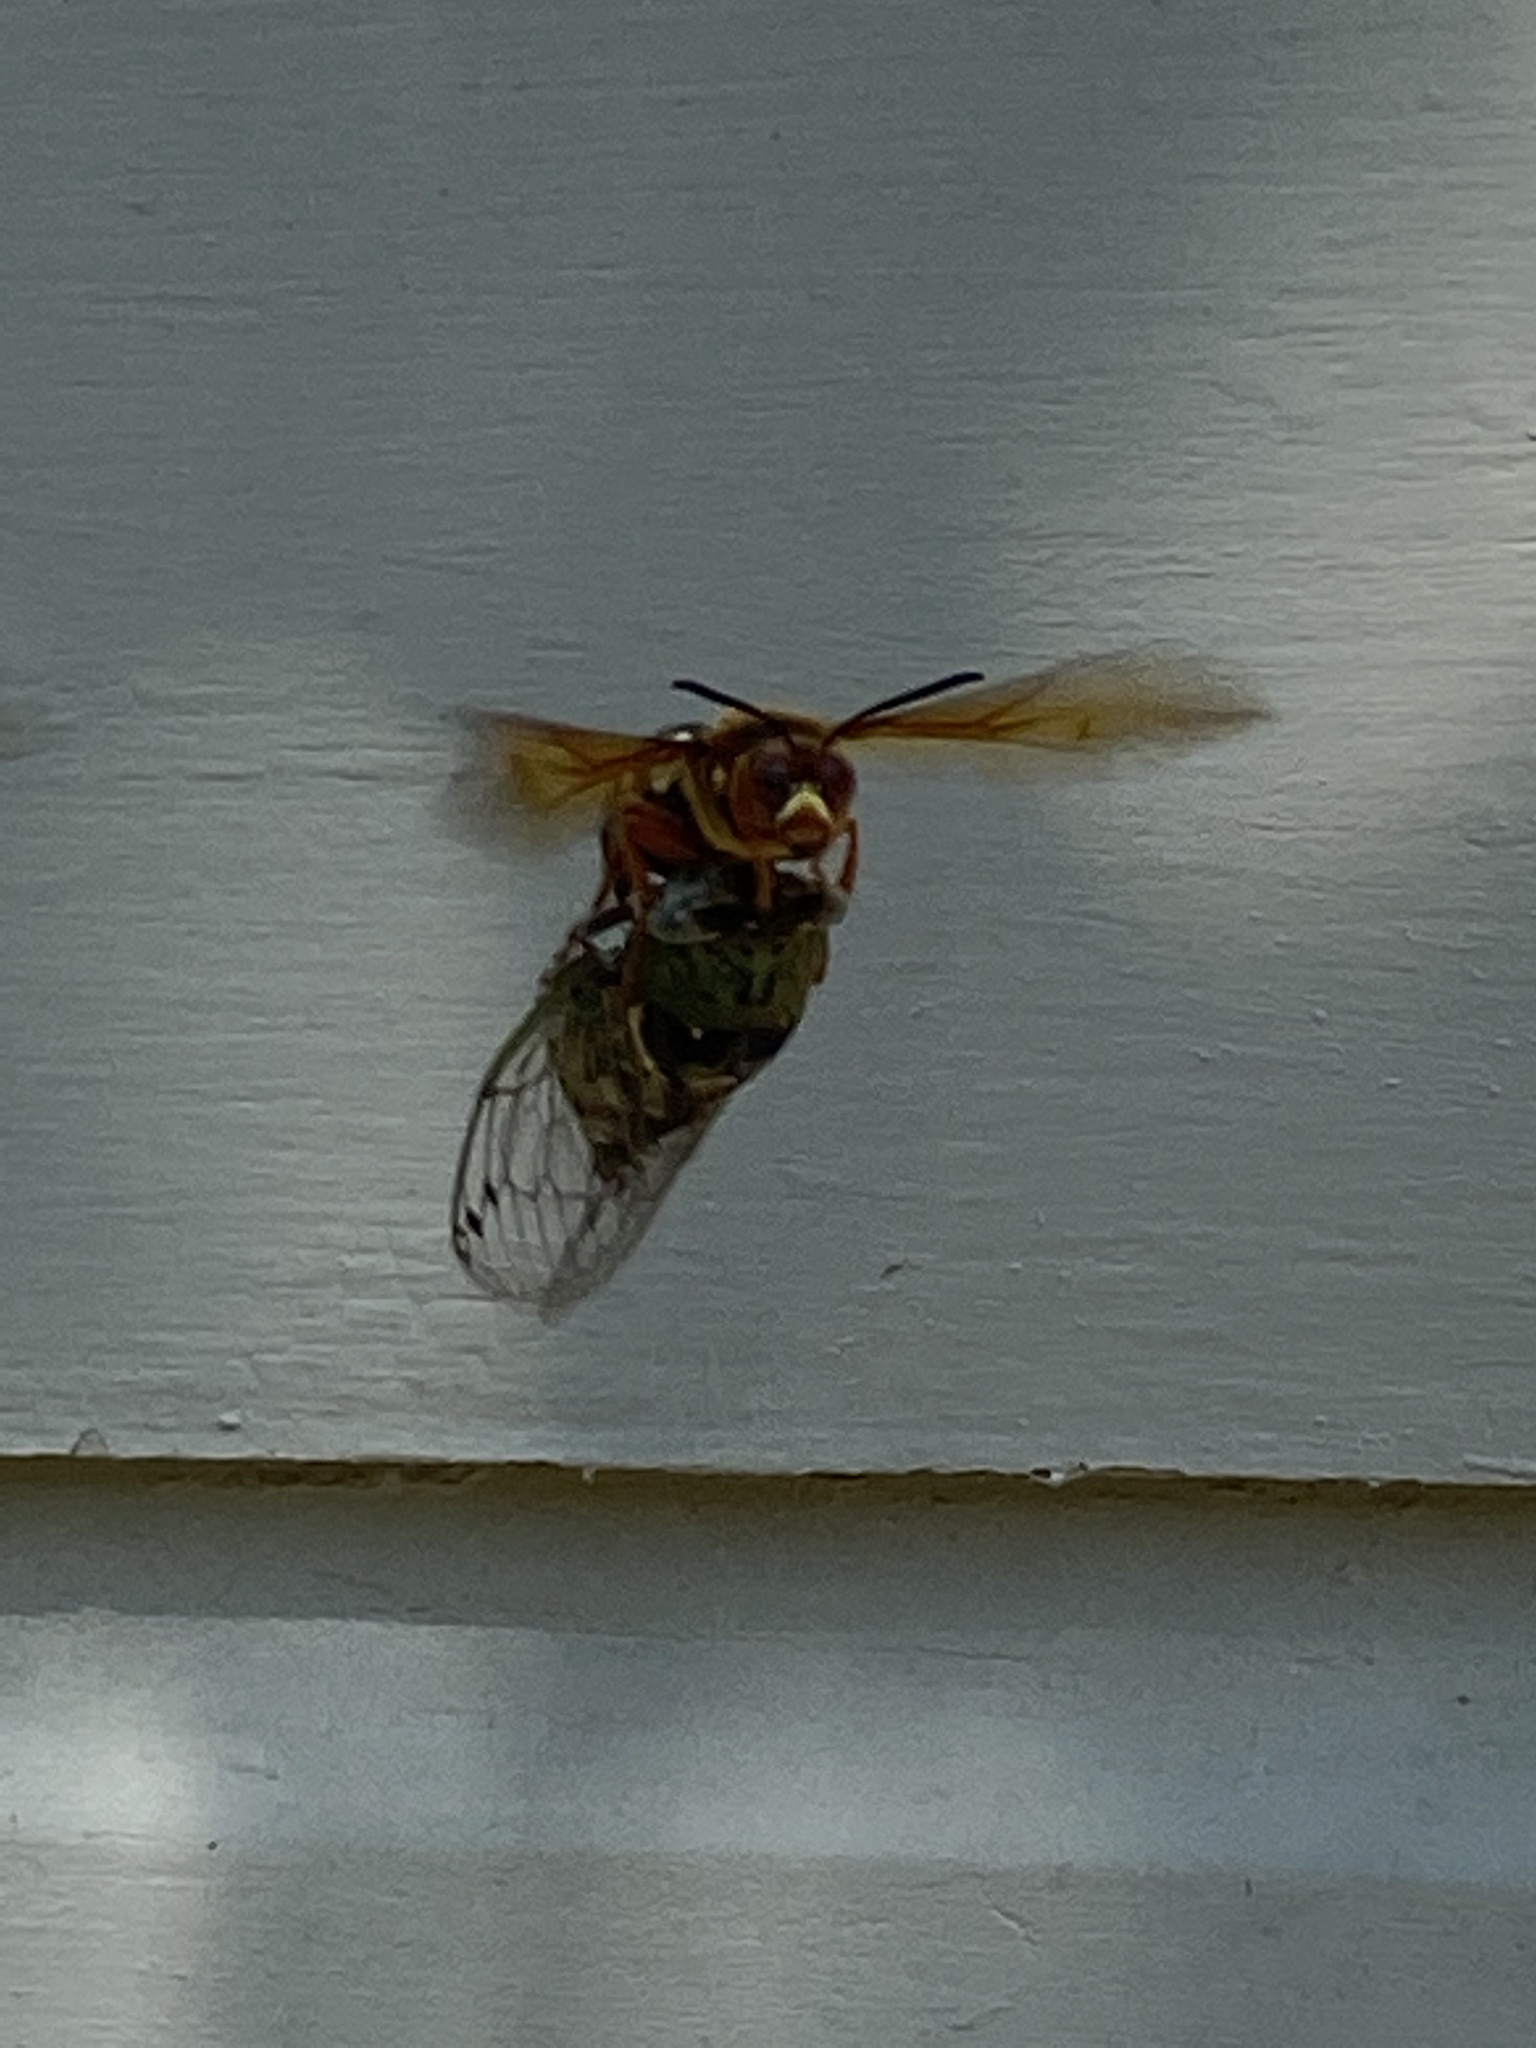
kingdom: Animalia
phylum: Arthropoda
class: Insecta
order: Hymenoptera
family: Crabronidae
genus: Sphecius
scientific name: Sphecius speciosus
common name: Cicada killer
